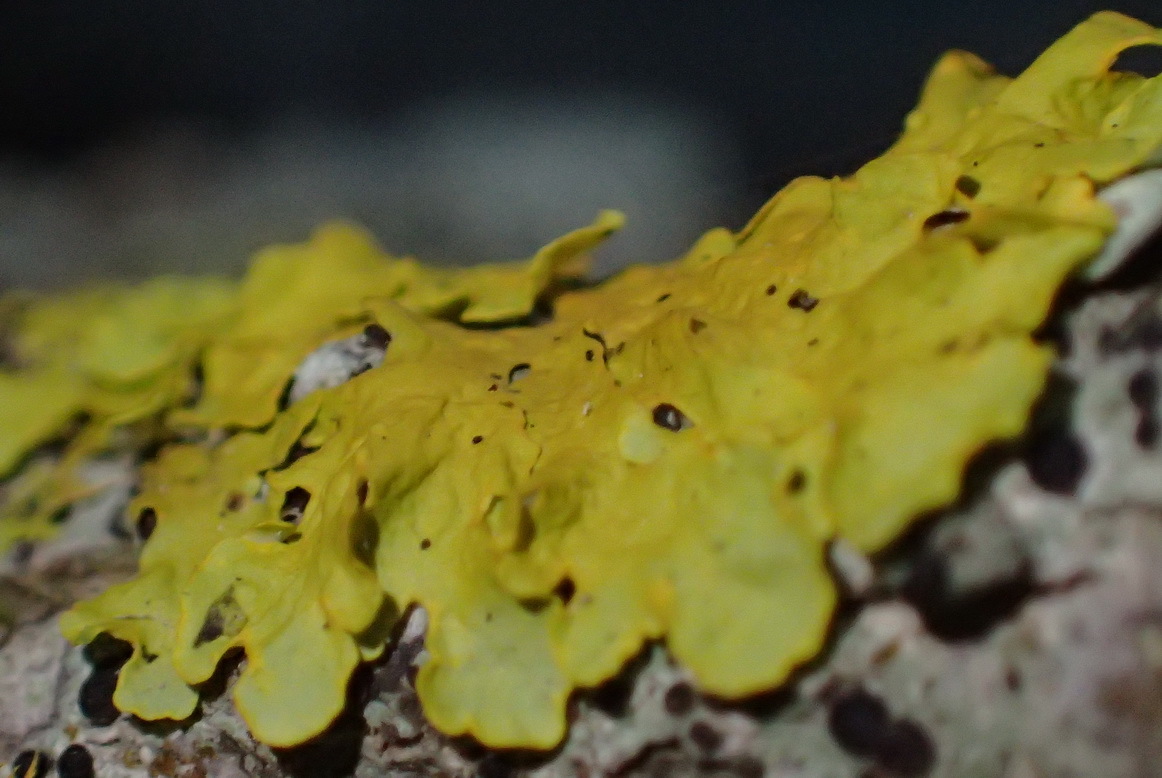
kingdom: Fungi
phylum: Ascomycota
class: Lecanoromycetes
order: Teloschistales
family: Teloschistaceae
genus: Xanthoria
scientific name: Xanthoria parietina
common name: Common orange lichen
